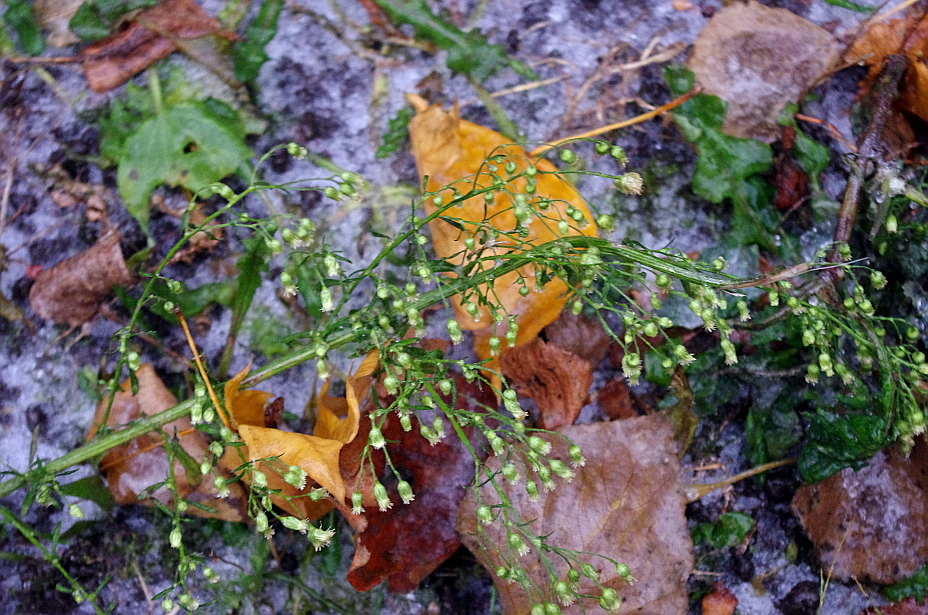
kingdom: Plantae
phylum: Tracheophyta
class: Magnoliopsida
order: Asterales
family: Asteraceae
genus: Erigeron
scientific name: Erigeron canadensis
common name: Canadian fleabane
